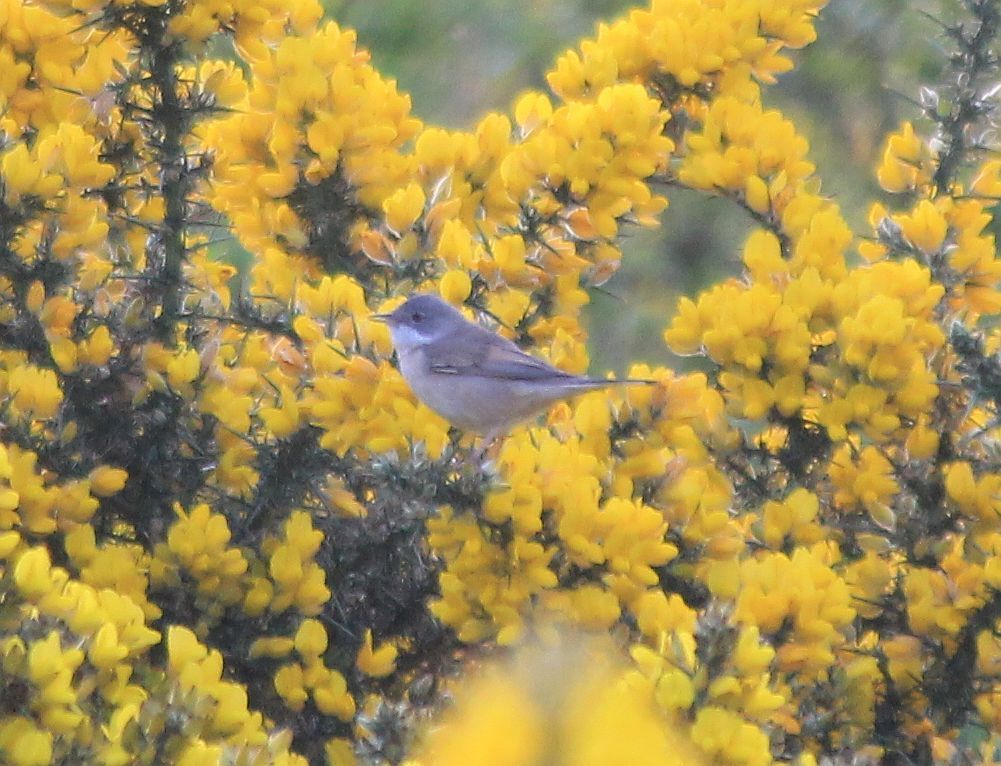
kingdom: Animalia
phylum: Chordata
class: Aves
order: Passeriformes
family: Sylviidae
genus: Sylvia
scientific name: Sylvia communis
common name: Common whitethroat
